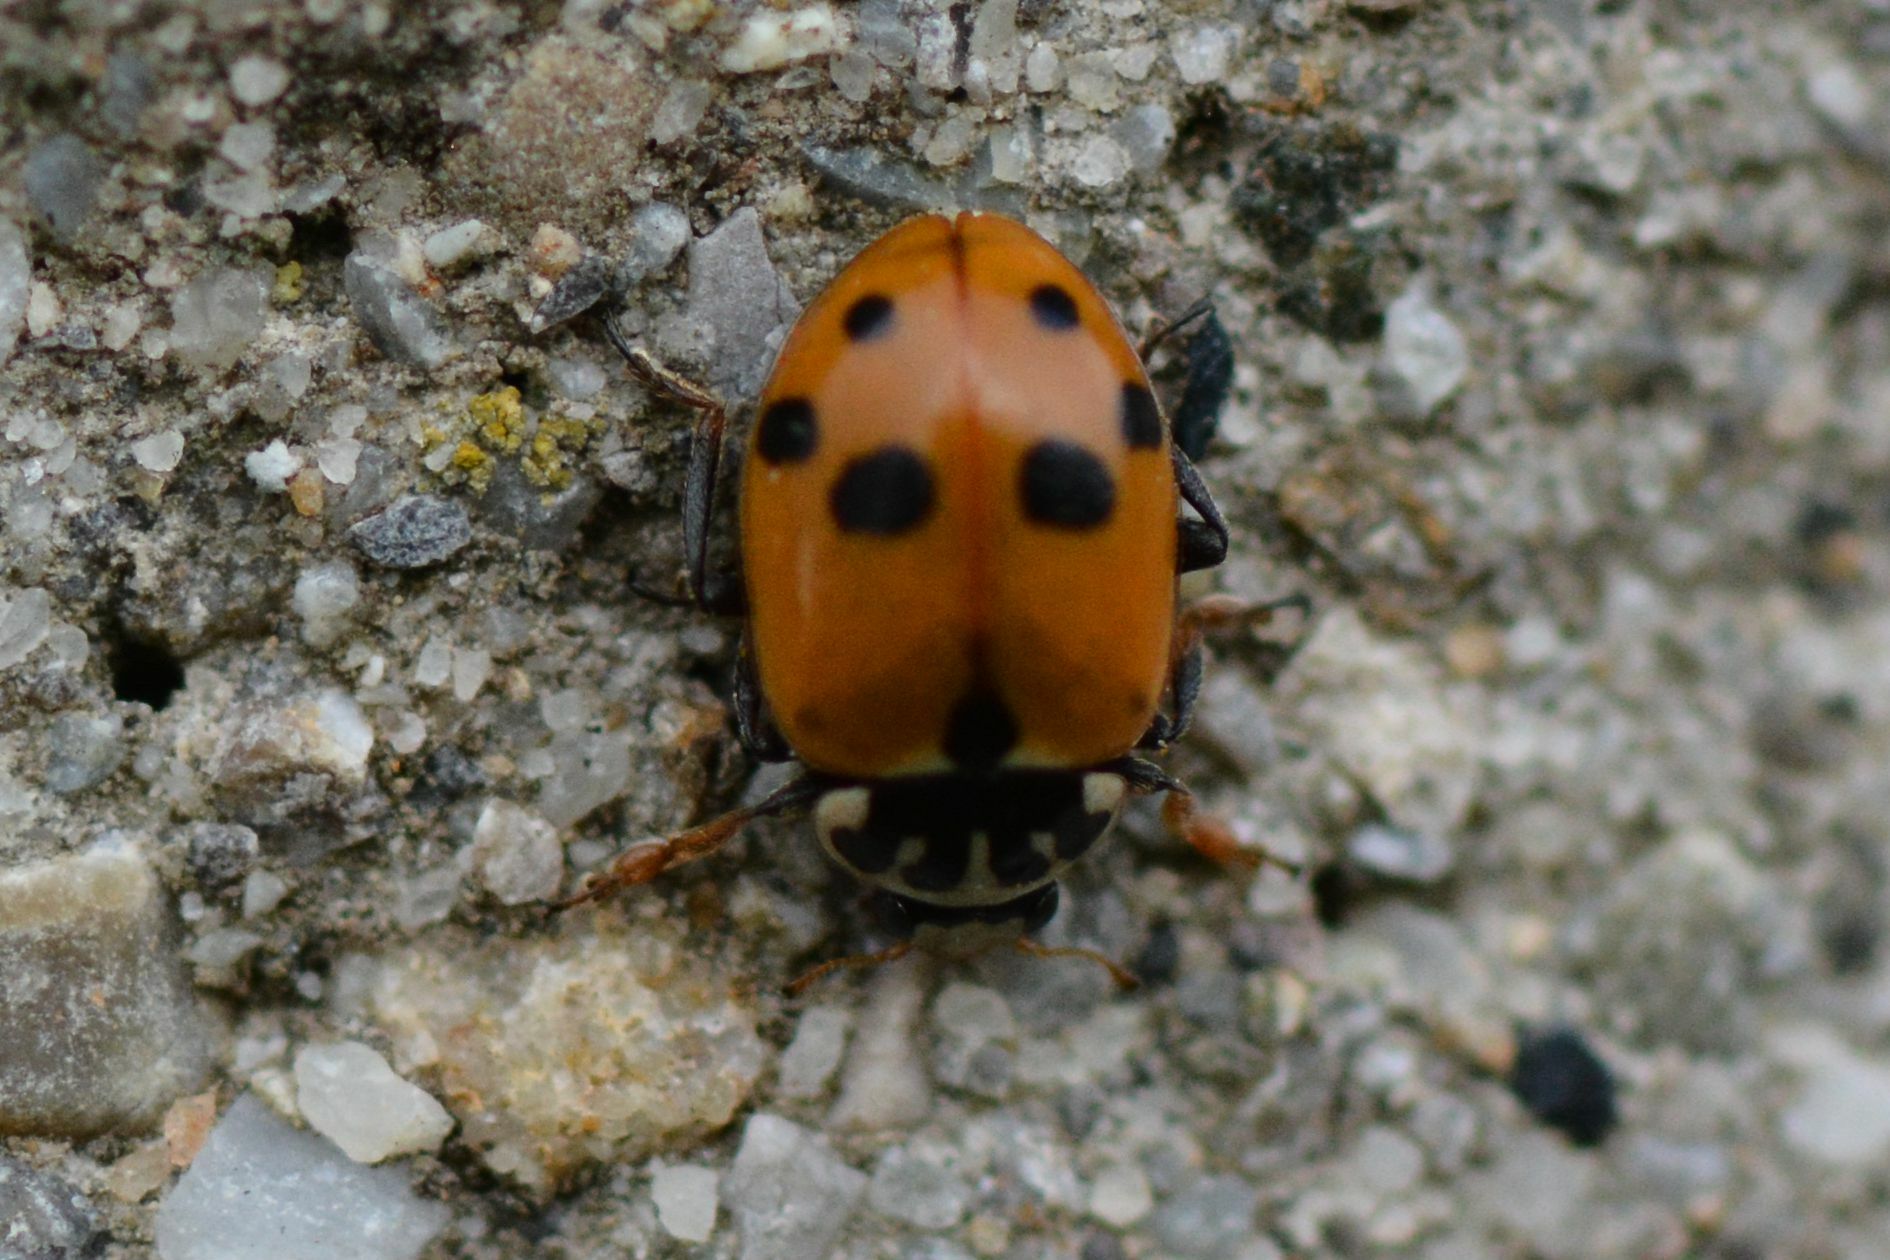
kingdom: Animalia
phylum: Arthropoda
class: Insecta
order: Coleoptera
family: Coccinellidae
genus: Hippodamia
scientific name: Hippodamia variegata
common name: Ladybird beetle
